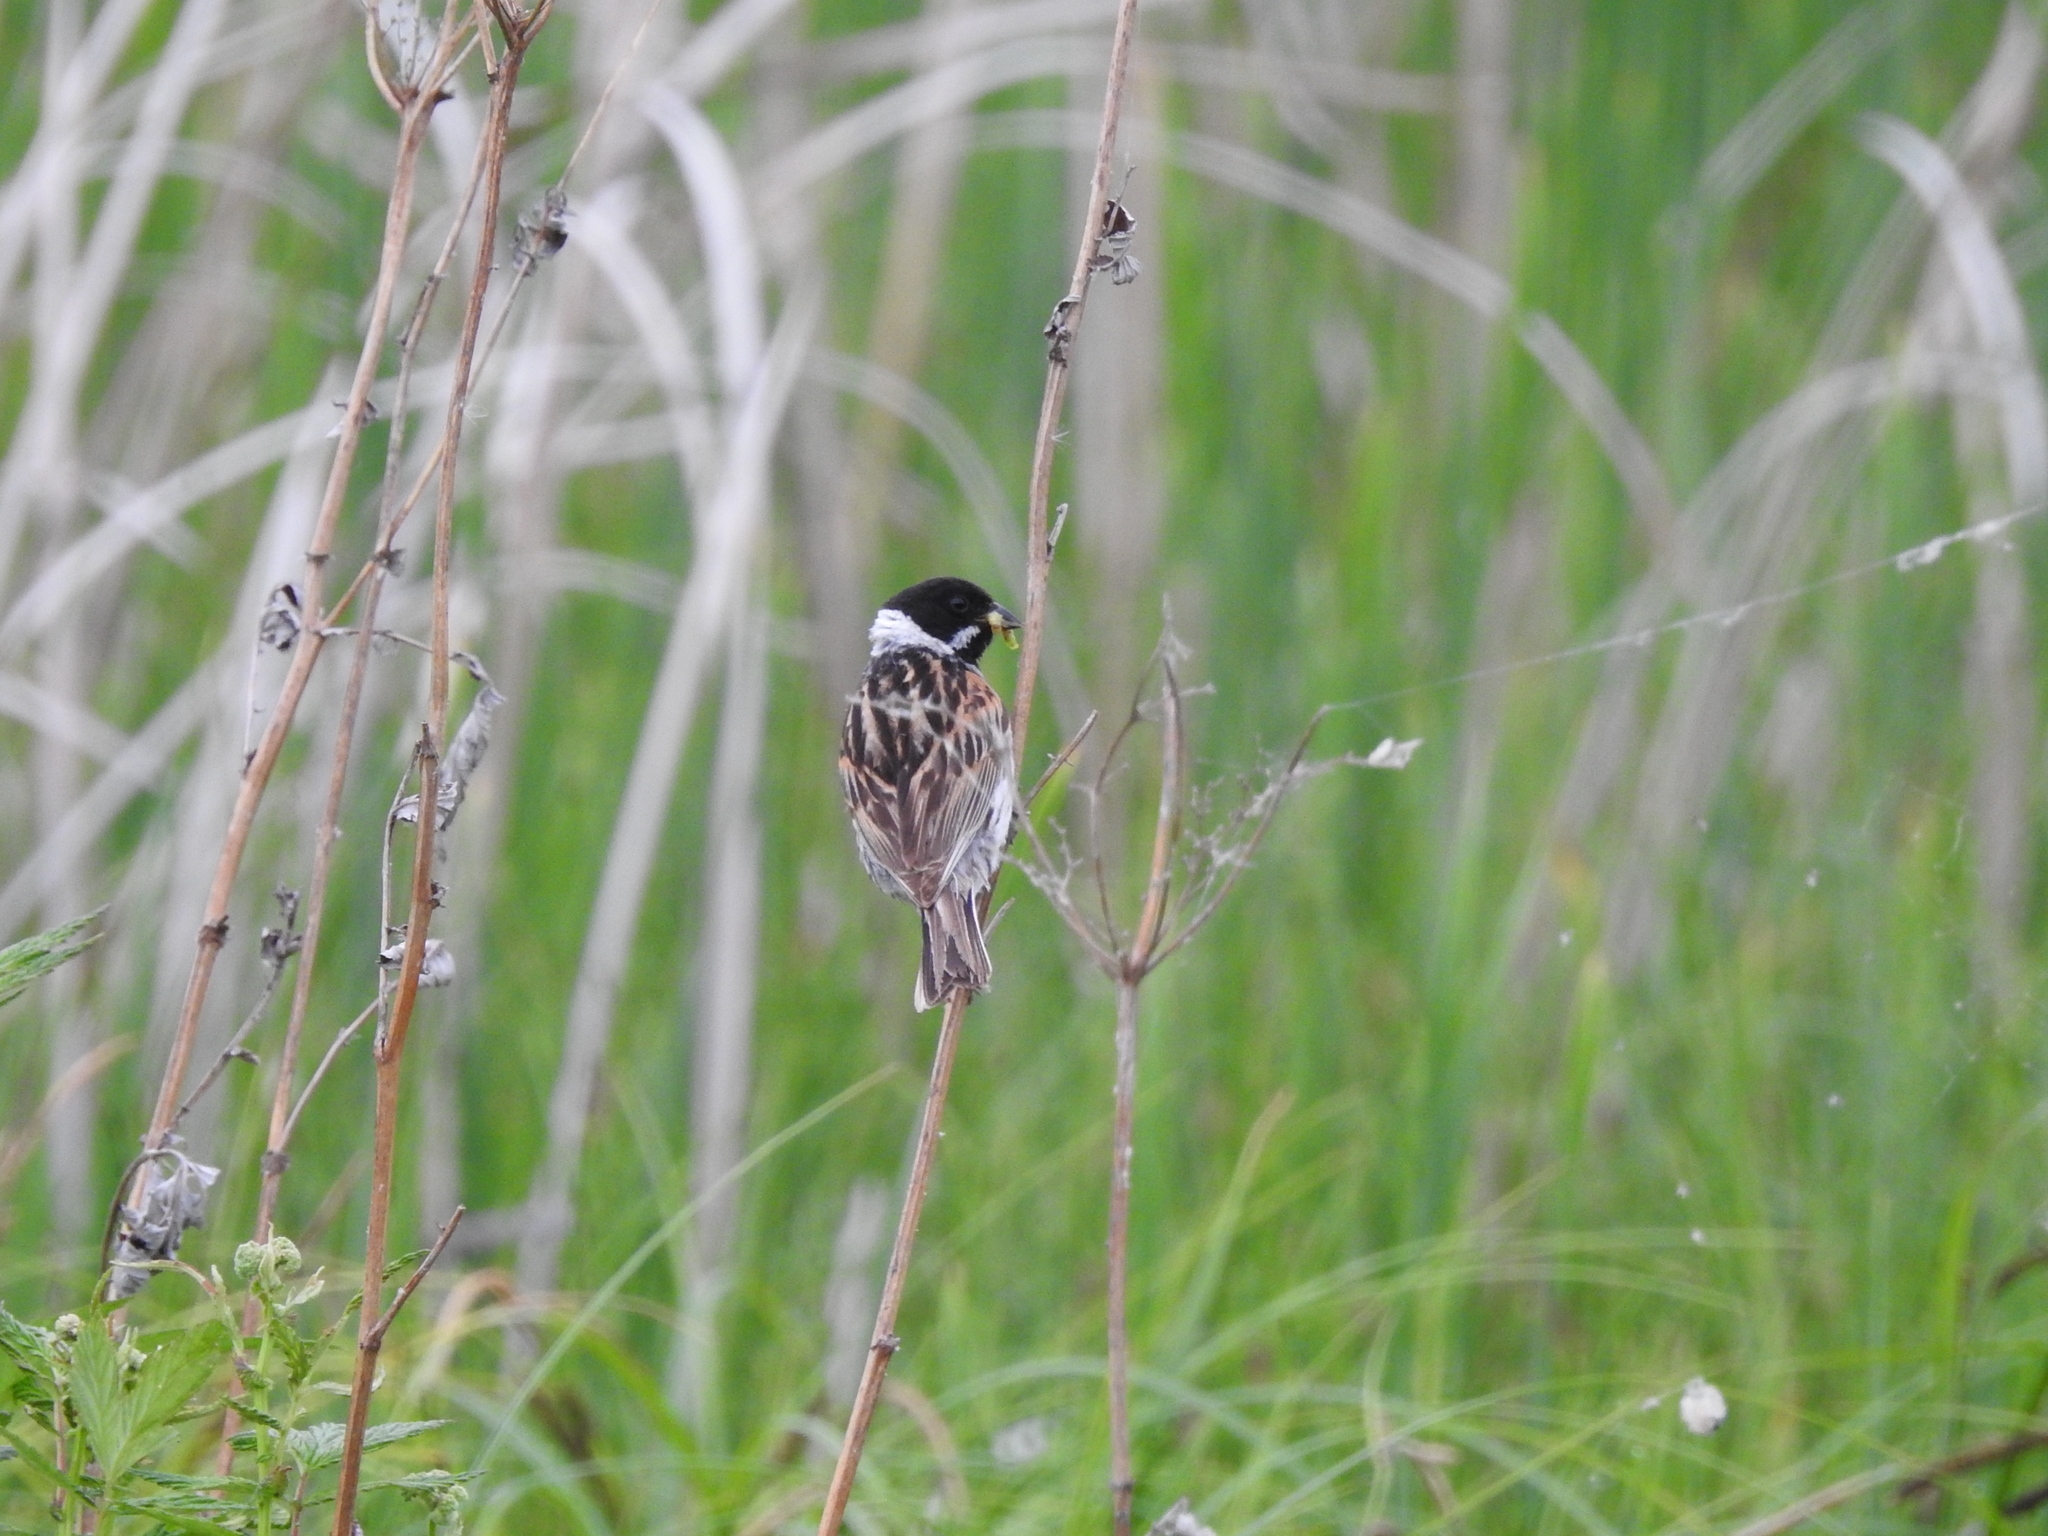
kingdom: Animalia
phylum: Chordata
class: Aves
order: Passeriformes
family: Emberizidae
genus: Emberiza
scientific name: Emberiza schoeniclus
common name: Reed bunting
